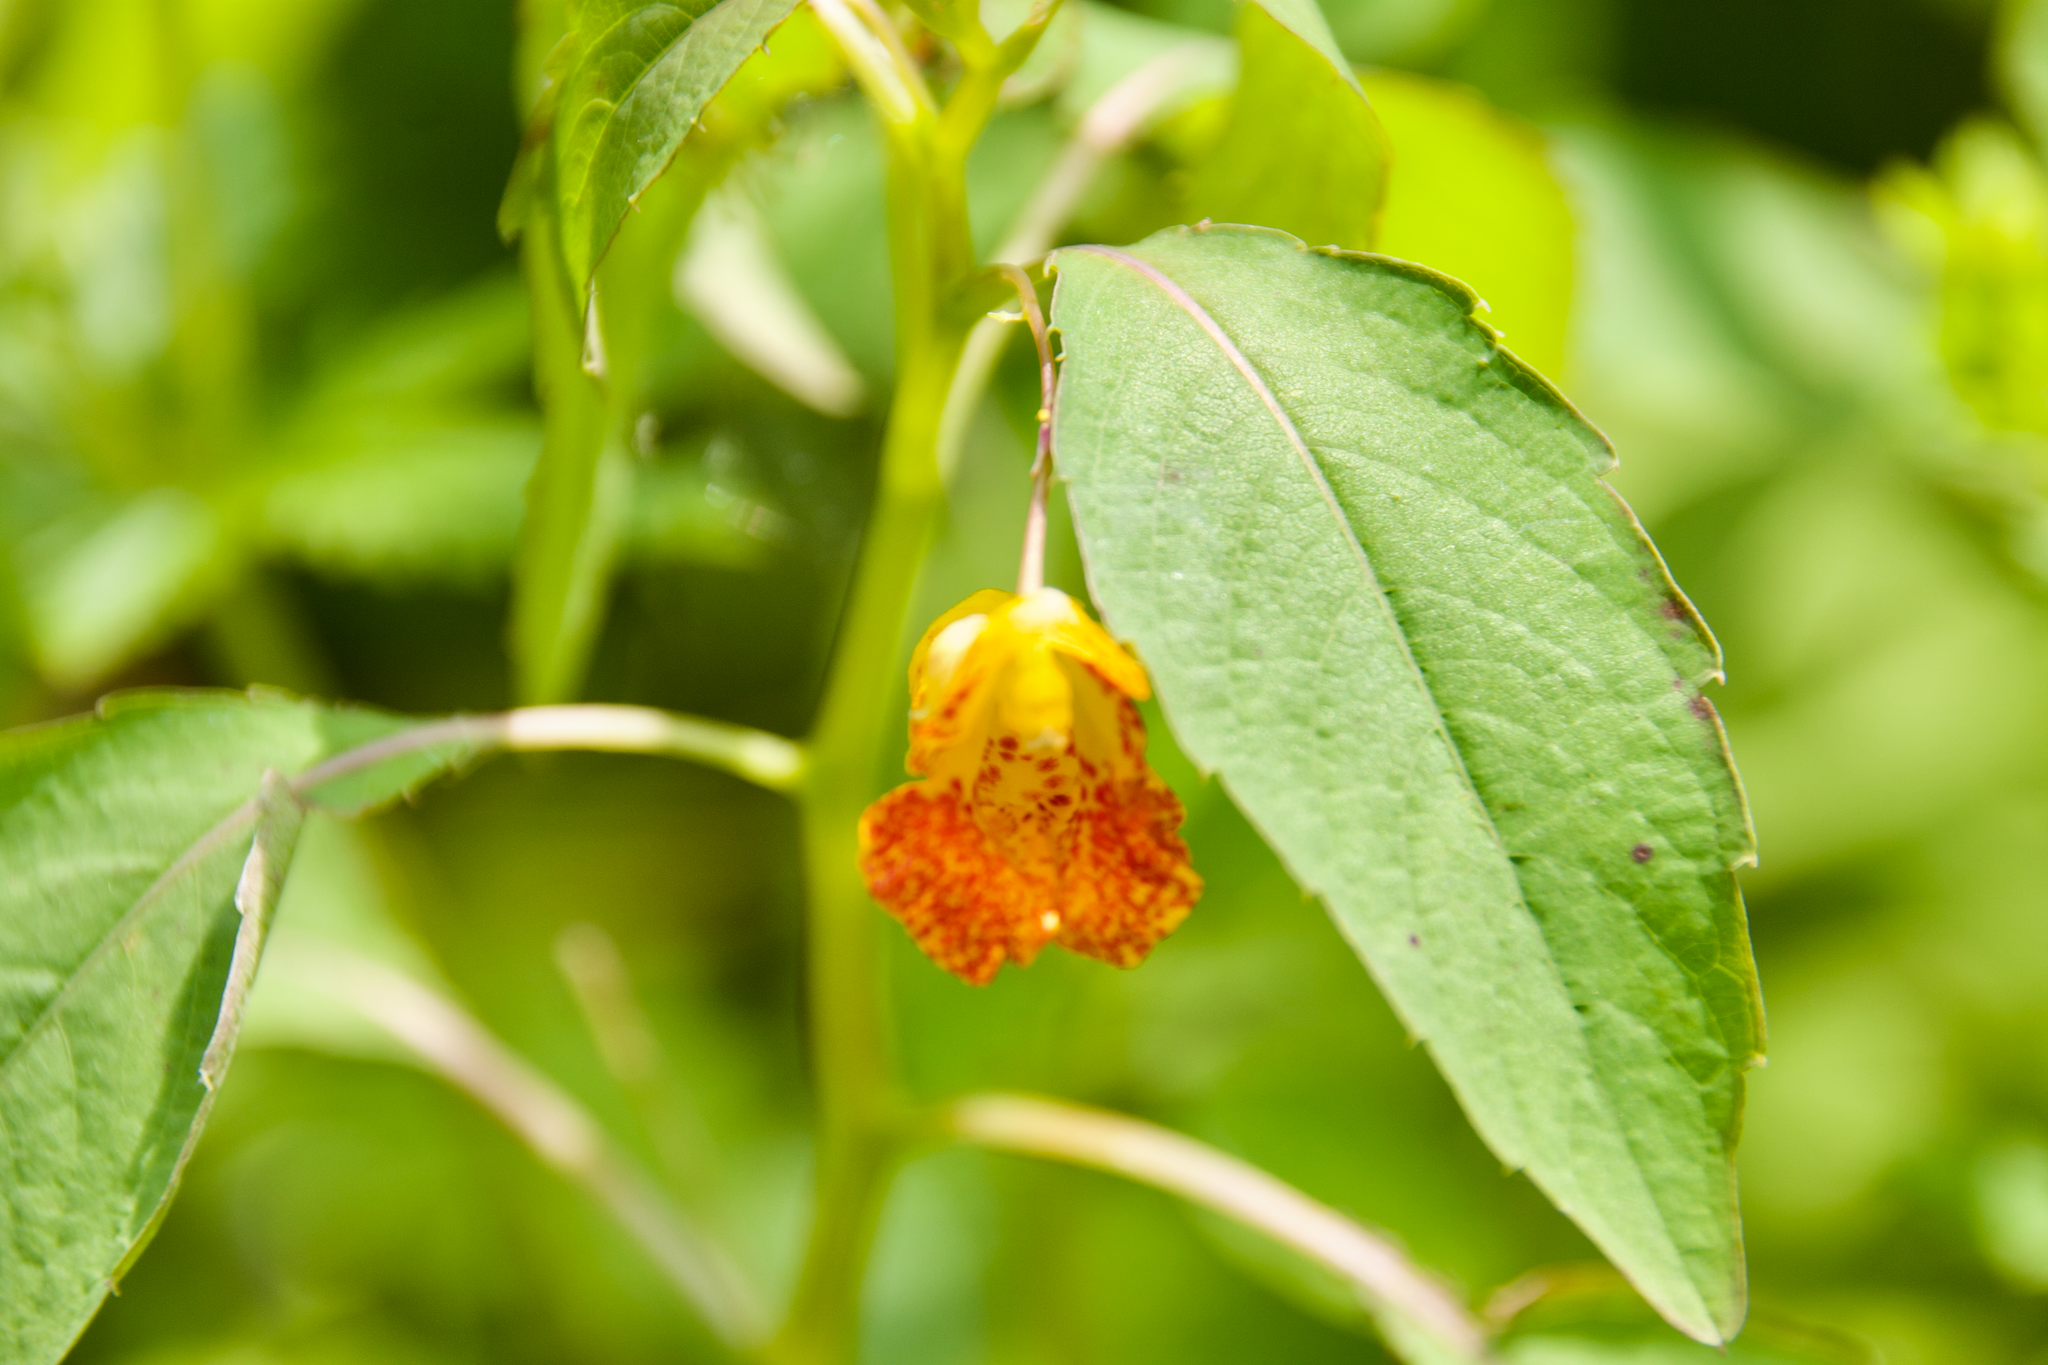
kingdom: Plantae
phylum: Tracheophyta
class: Magnoliopsida
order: Ericales
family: Balsaminaceae
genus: Impatiens
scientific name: Impatiens capensis
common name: Orange balsam
